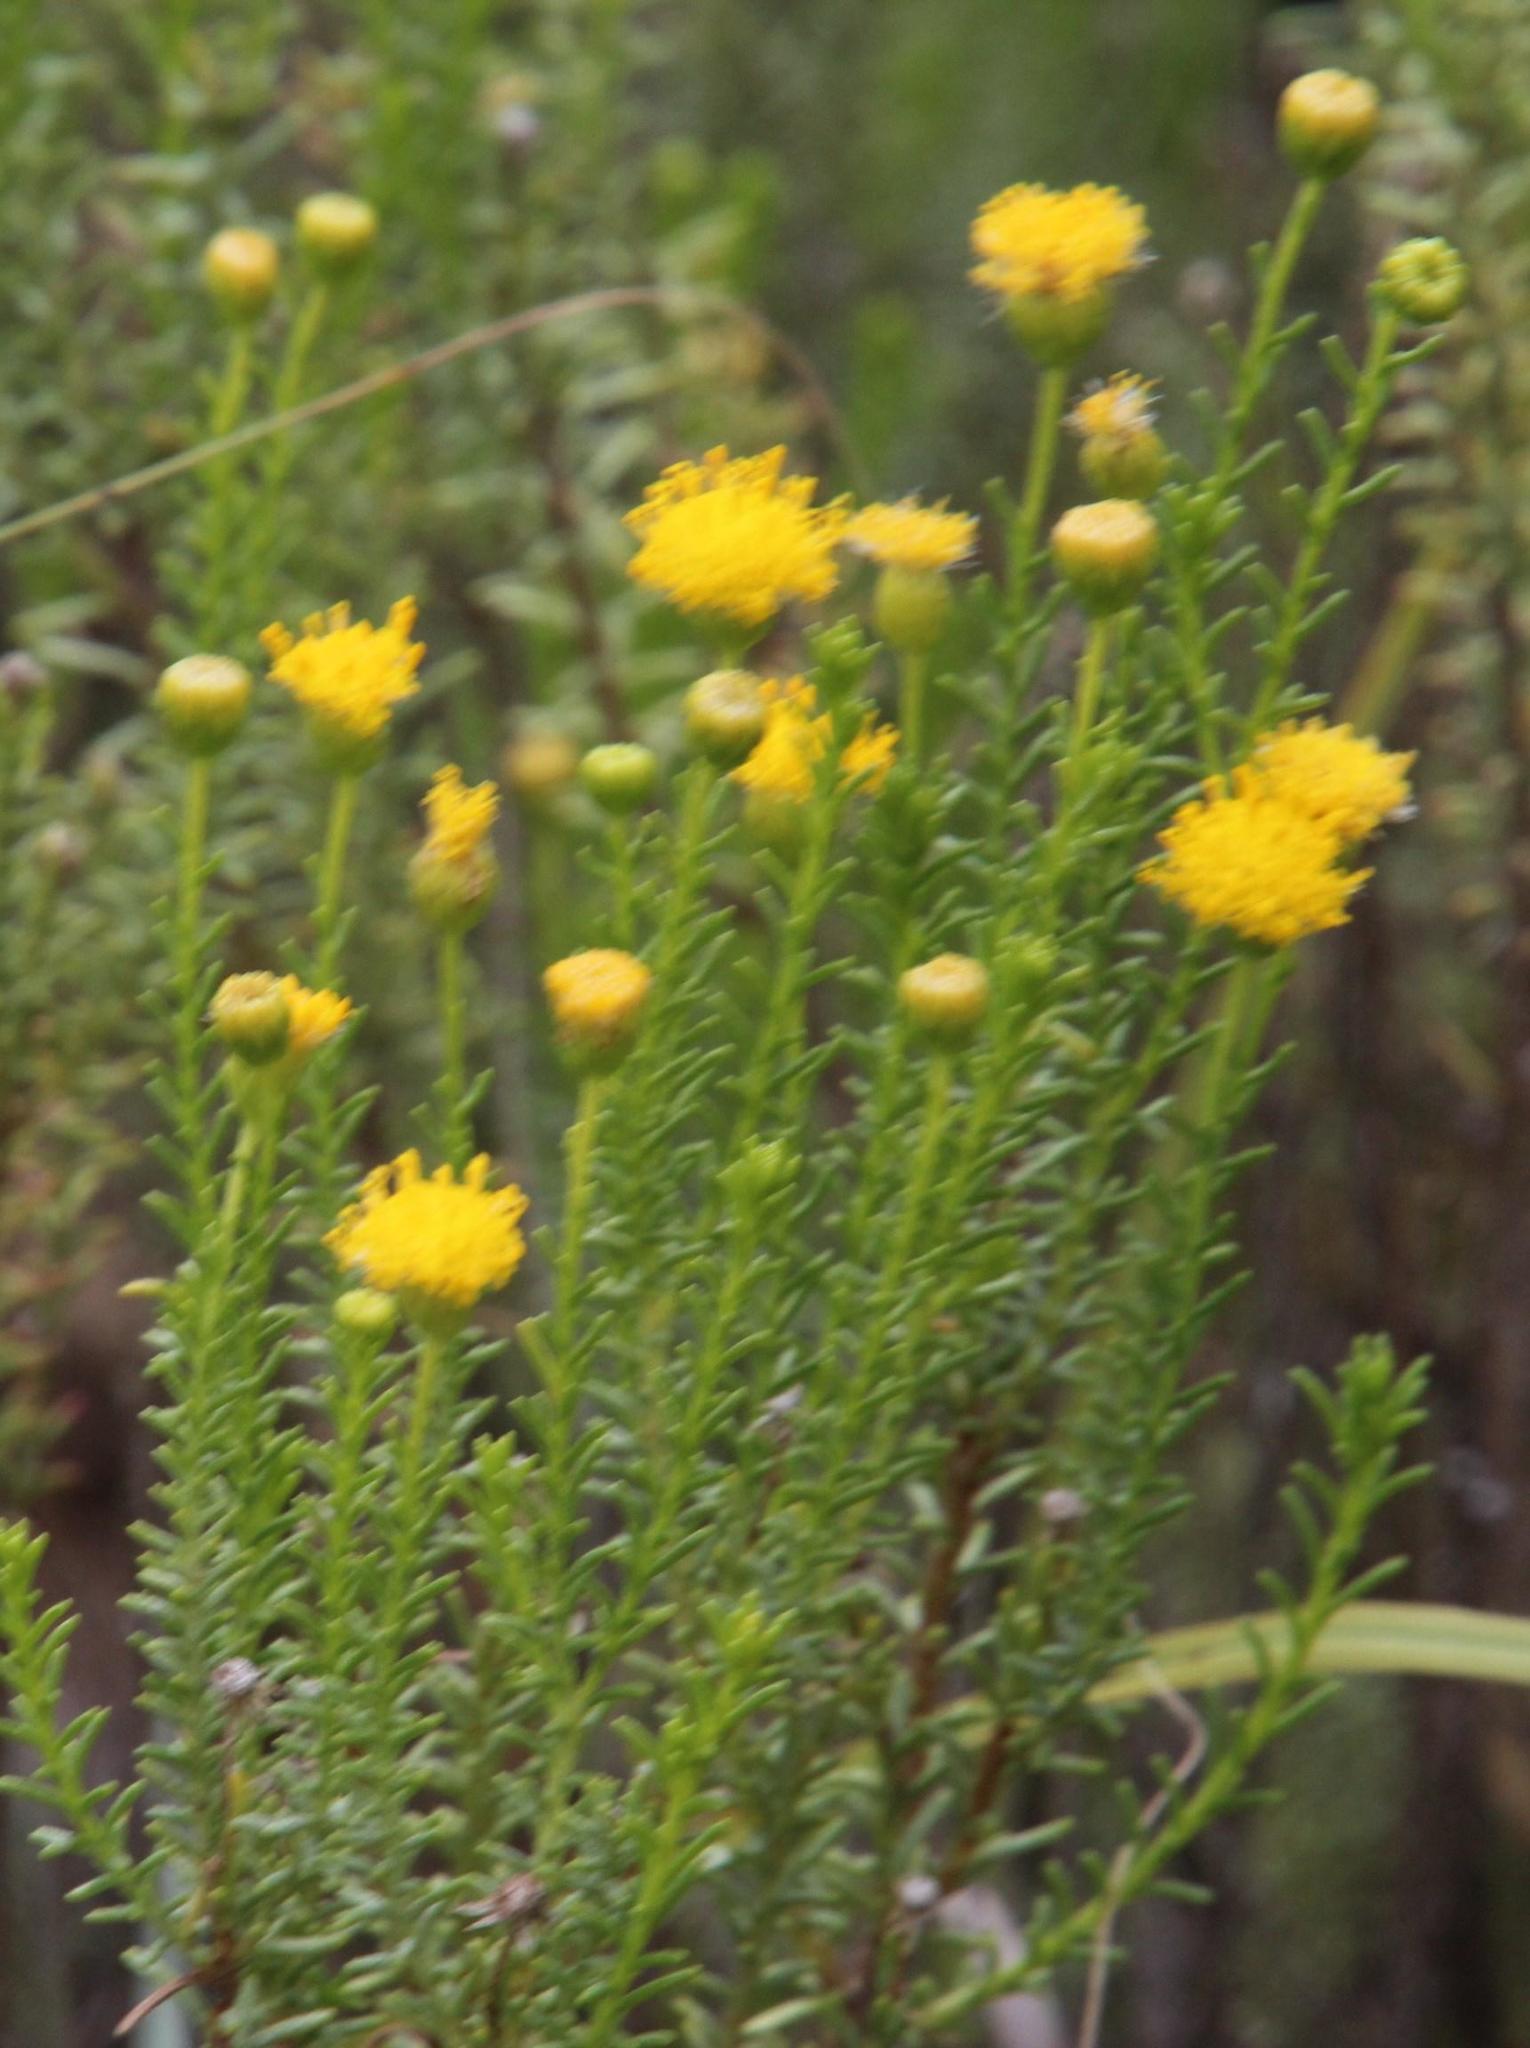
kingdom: Plantae
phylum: Tracheophyta
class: Magnoliopsida
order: Asterales
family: Asteraceae
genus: Chrysocoma
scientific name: Chrysocoma ciliata
